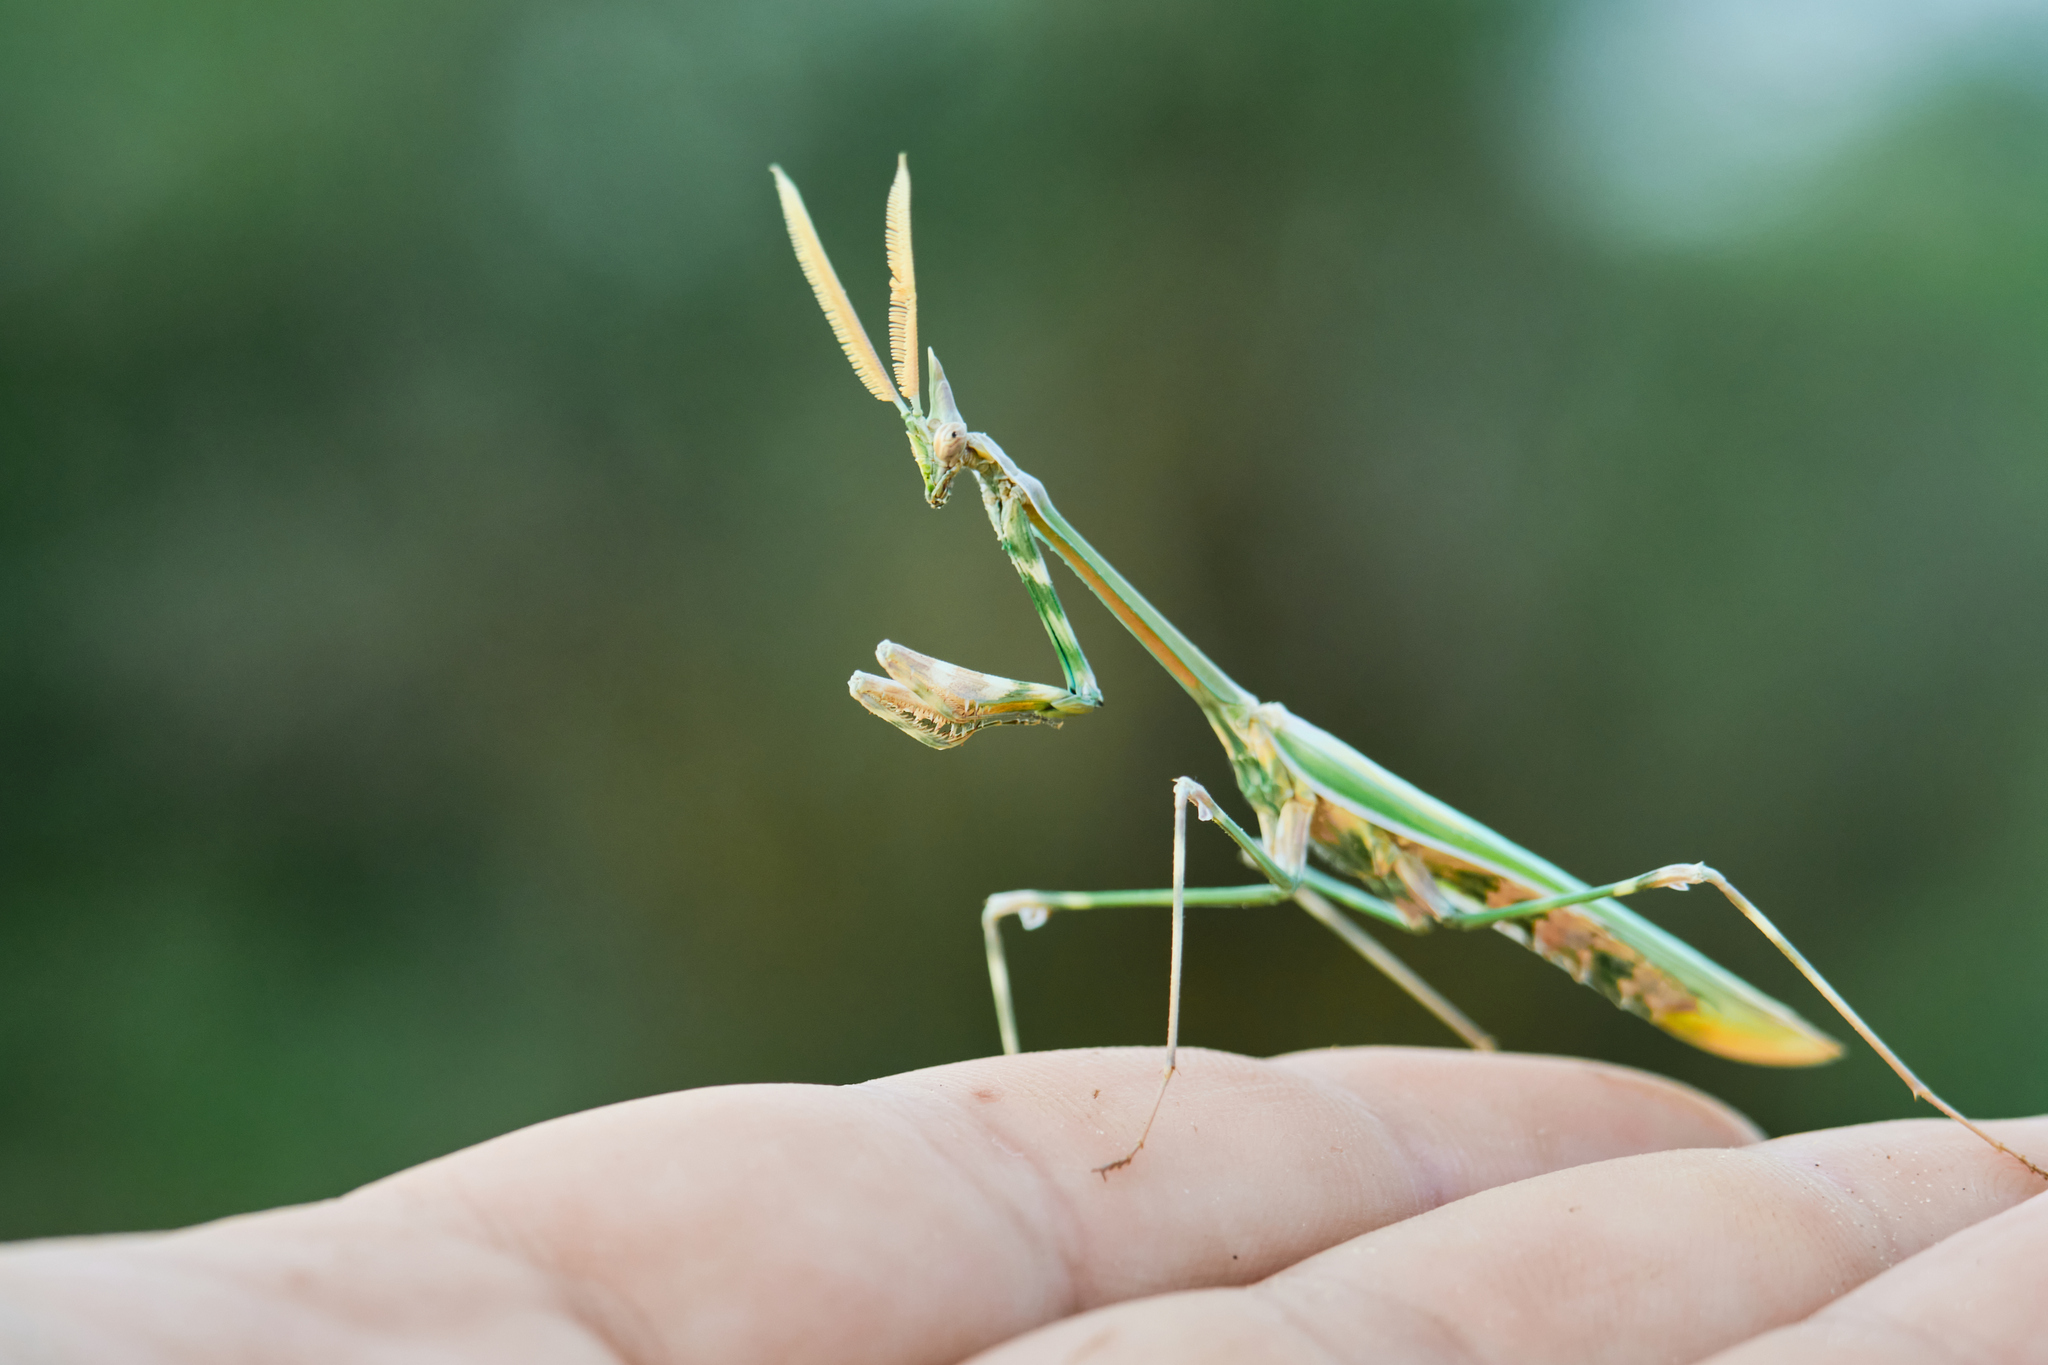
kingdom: Animalia
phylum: Arthropoda
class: Insecta
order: Mantodea
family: Empusidae
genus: Empusa
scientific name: Empusa pennicornis
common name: Conehead mantis
